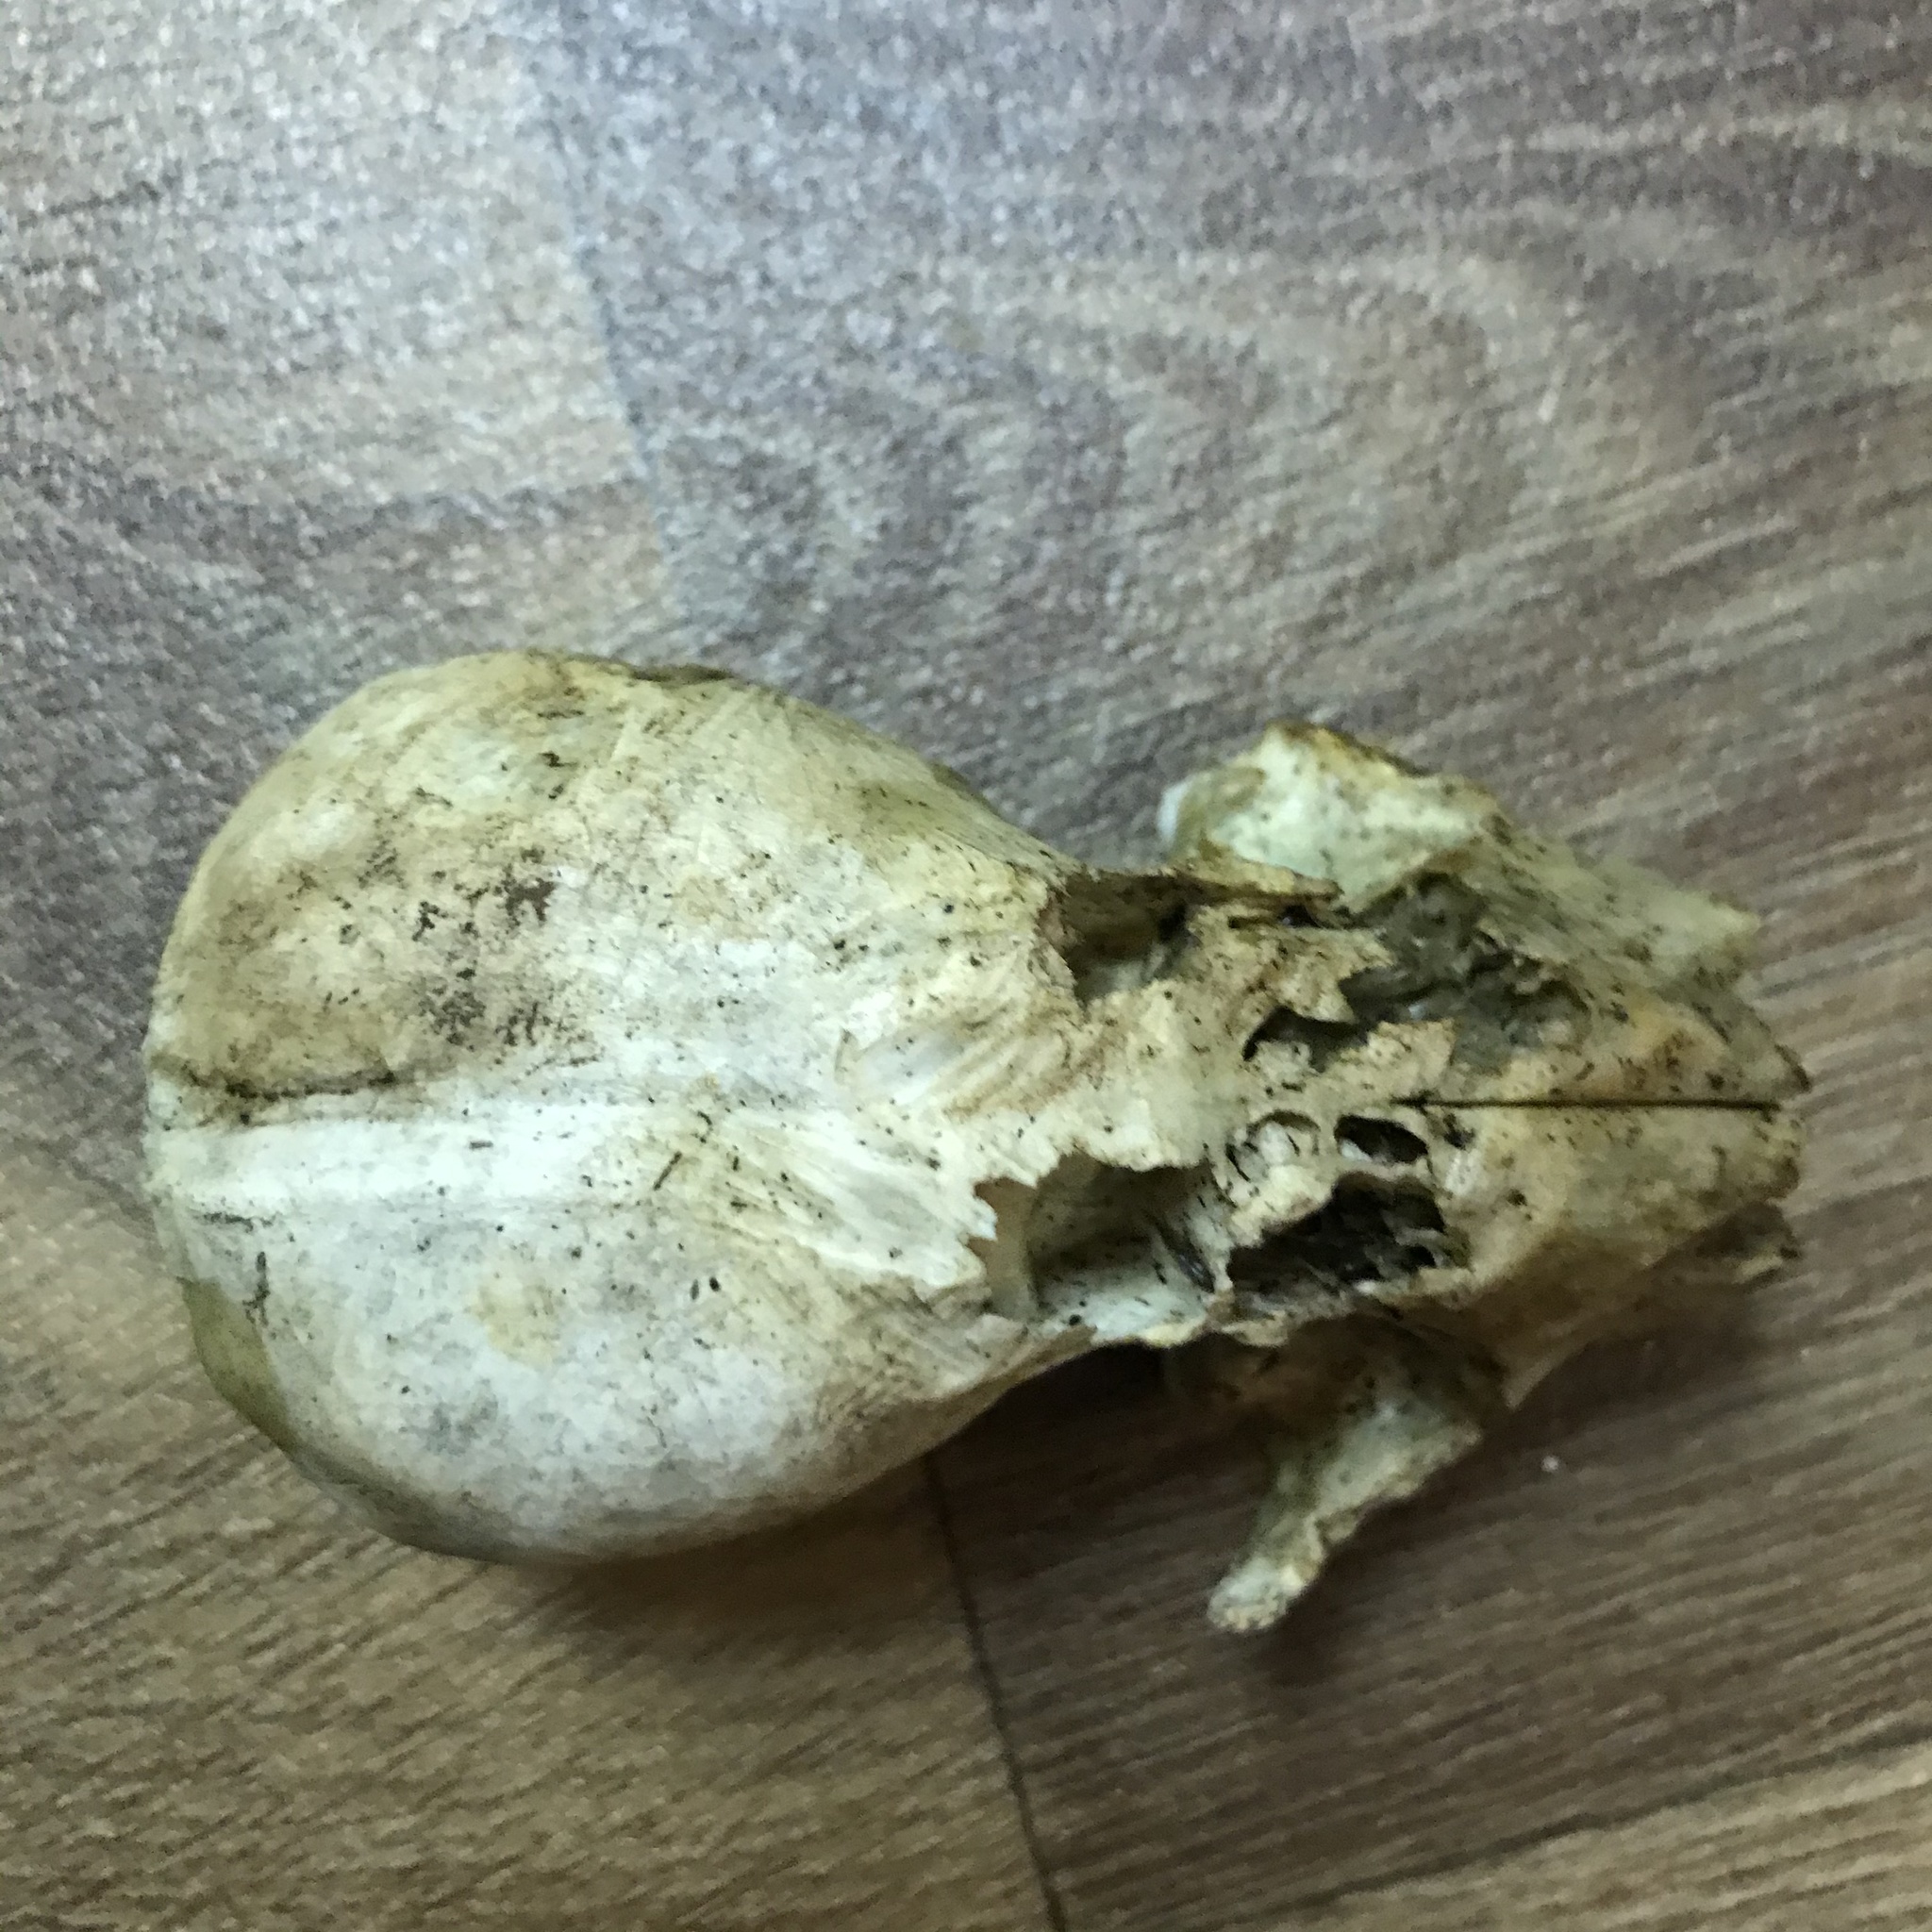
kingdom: Animalia
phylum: Chordata
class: Mammalia
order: Carnivora
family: Procyonidae
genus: Procyon
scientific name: Procyon lotor
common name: Raccoon
